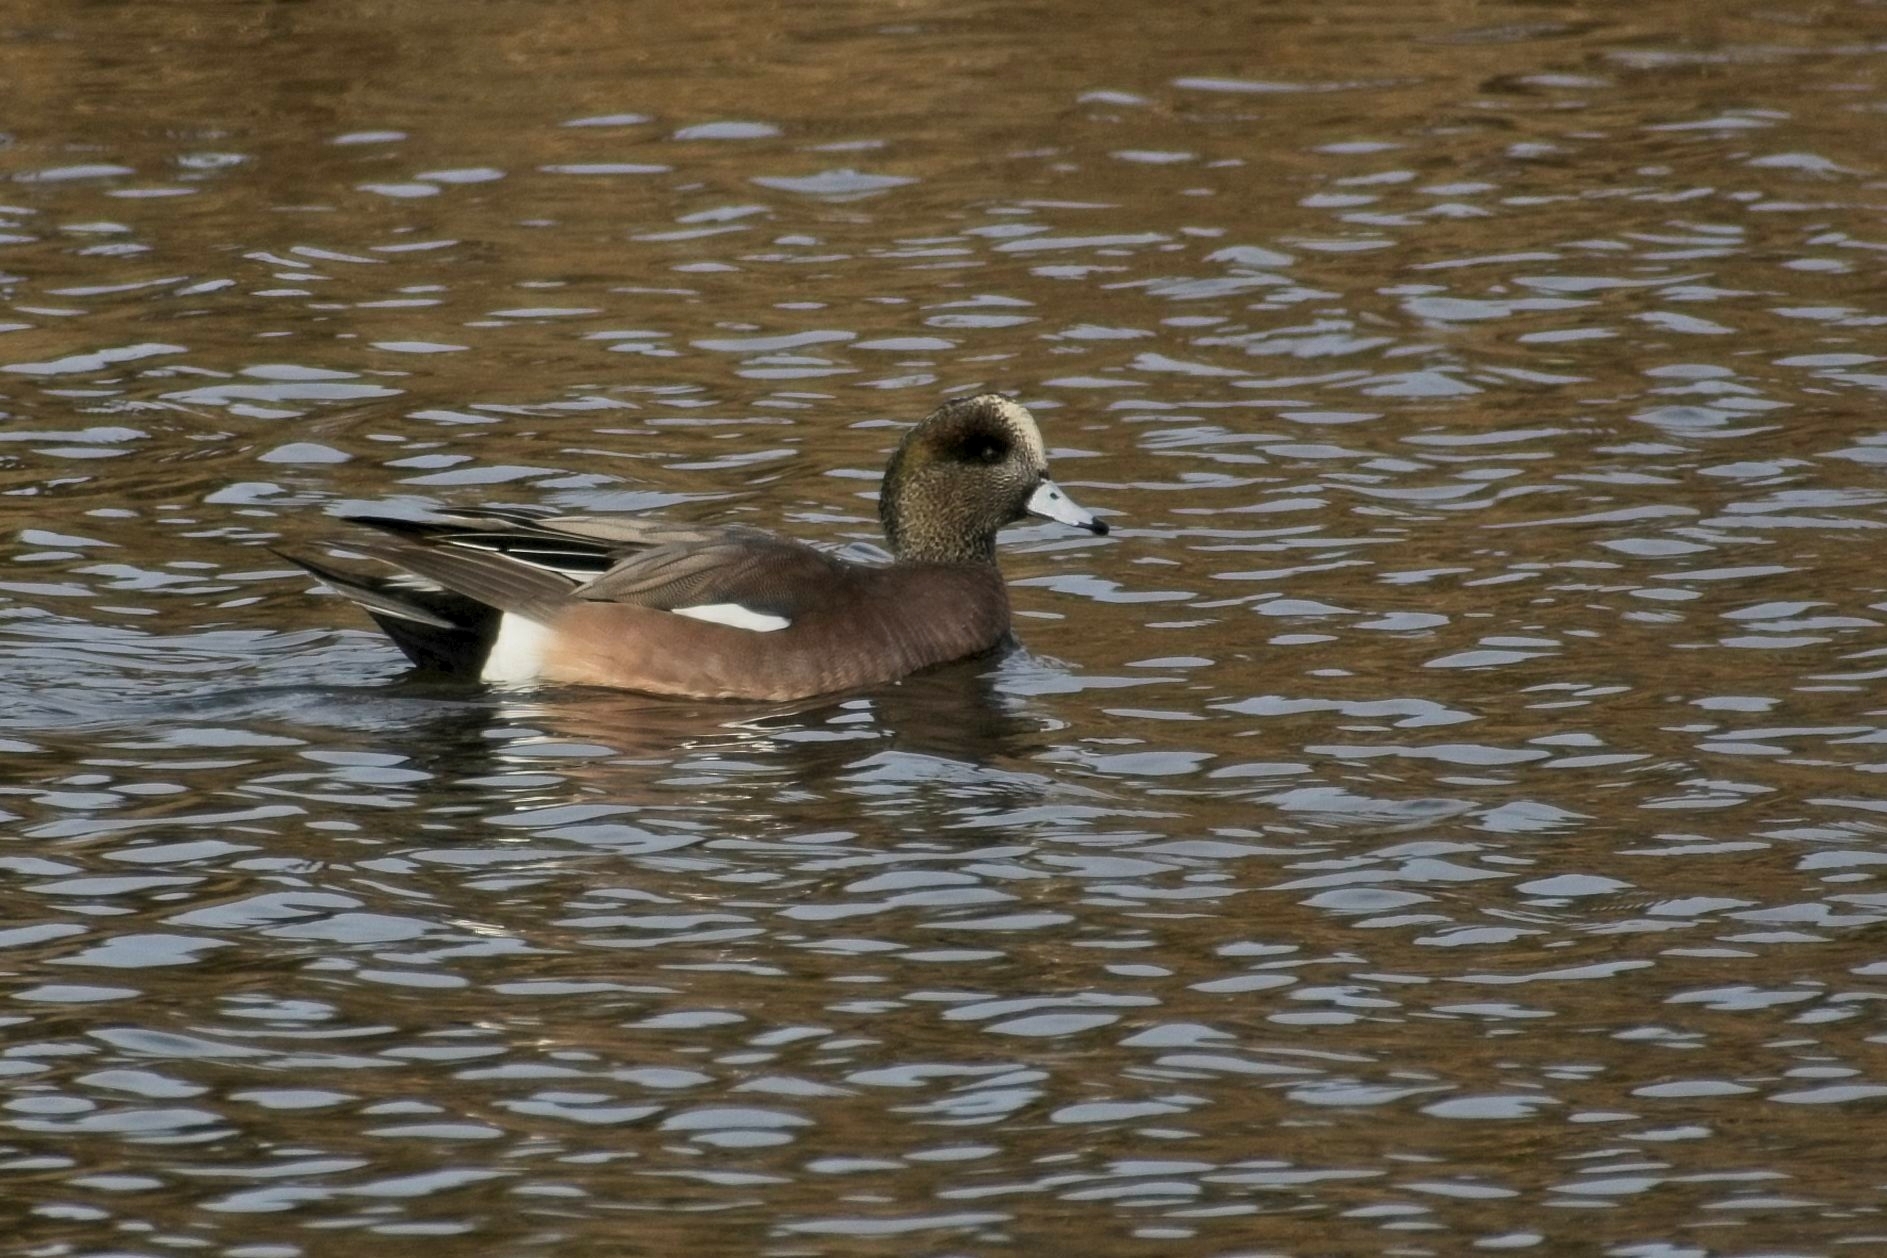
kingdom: Animalia
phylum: Chordata
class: Aves
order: Anseriformes
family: Anatidae
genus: Mareca
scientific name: Mareca americana
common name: American wigeon
